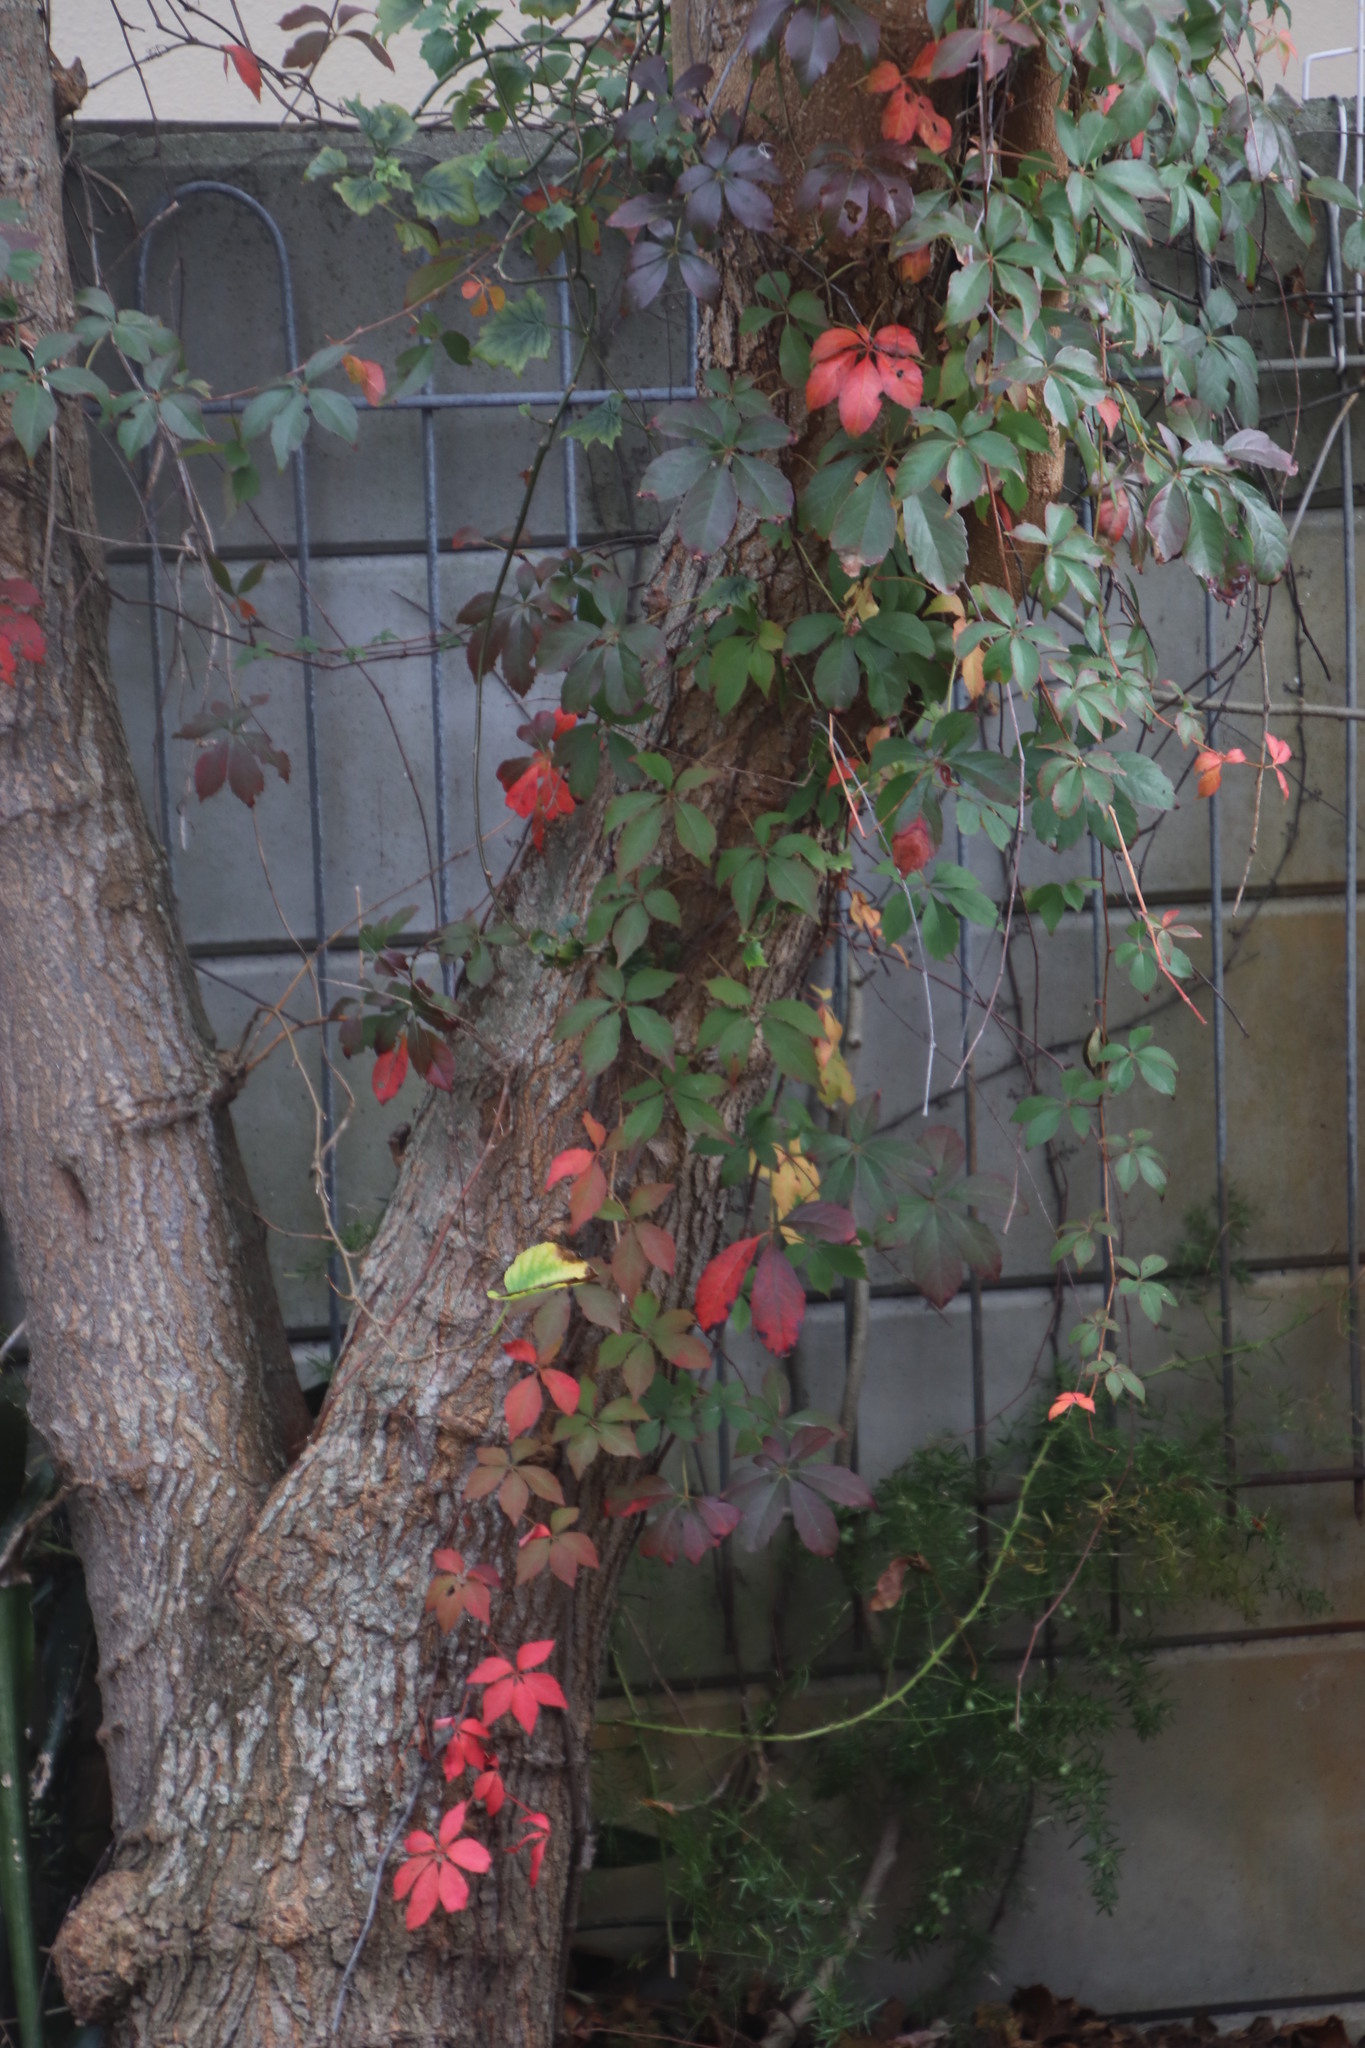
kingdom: Plantae
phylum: Tracheophyta
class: Magnoliopsida
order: Vitales
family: Vitaceae
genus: Parthenocissus
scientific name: Parthenocissus quinquefolia
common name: Virginia-creeper
